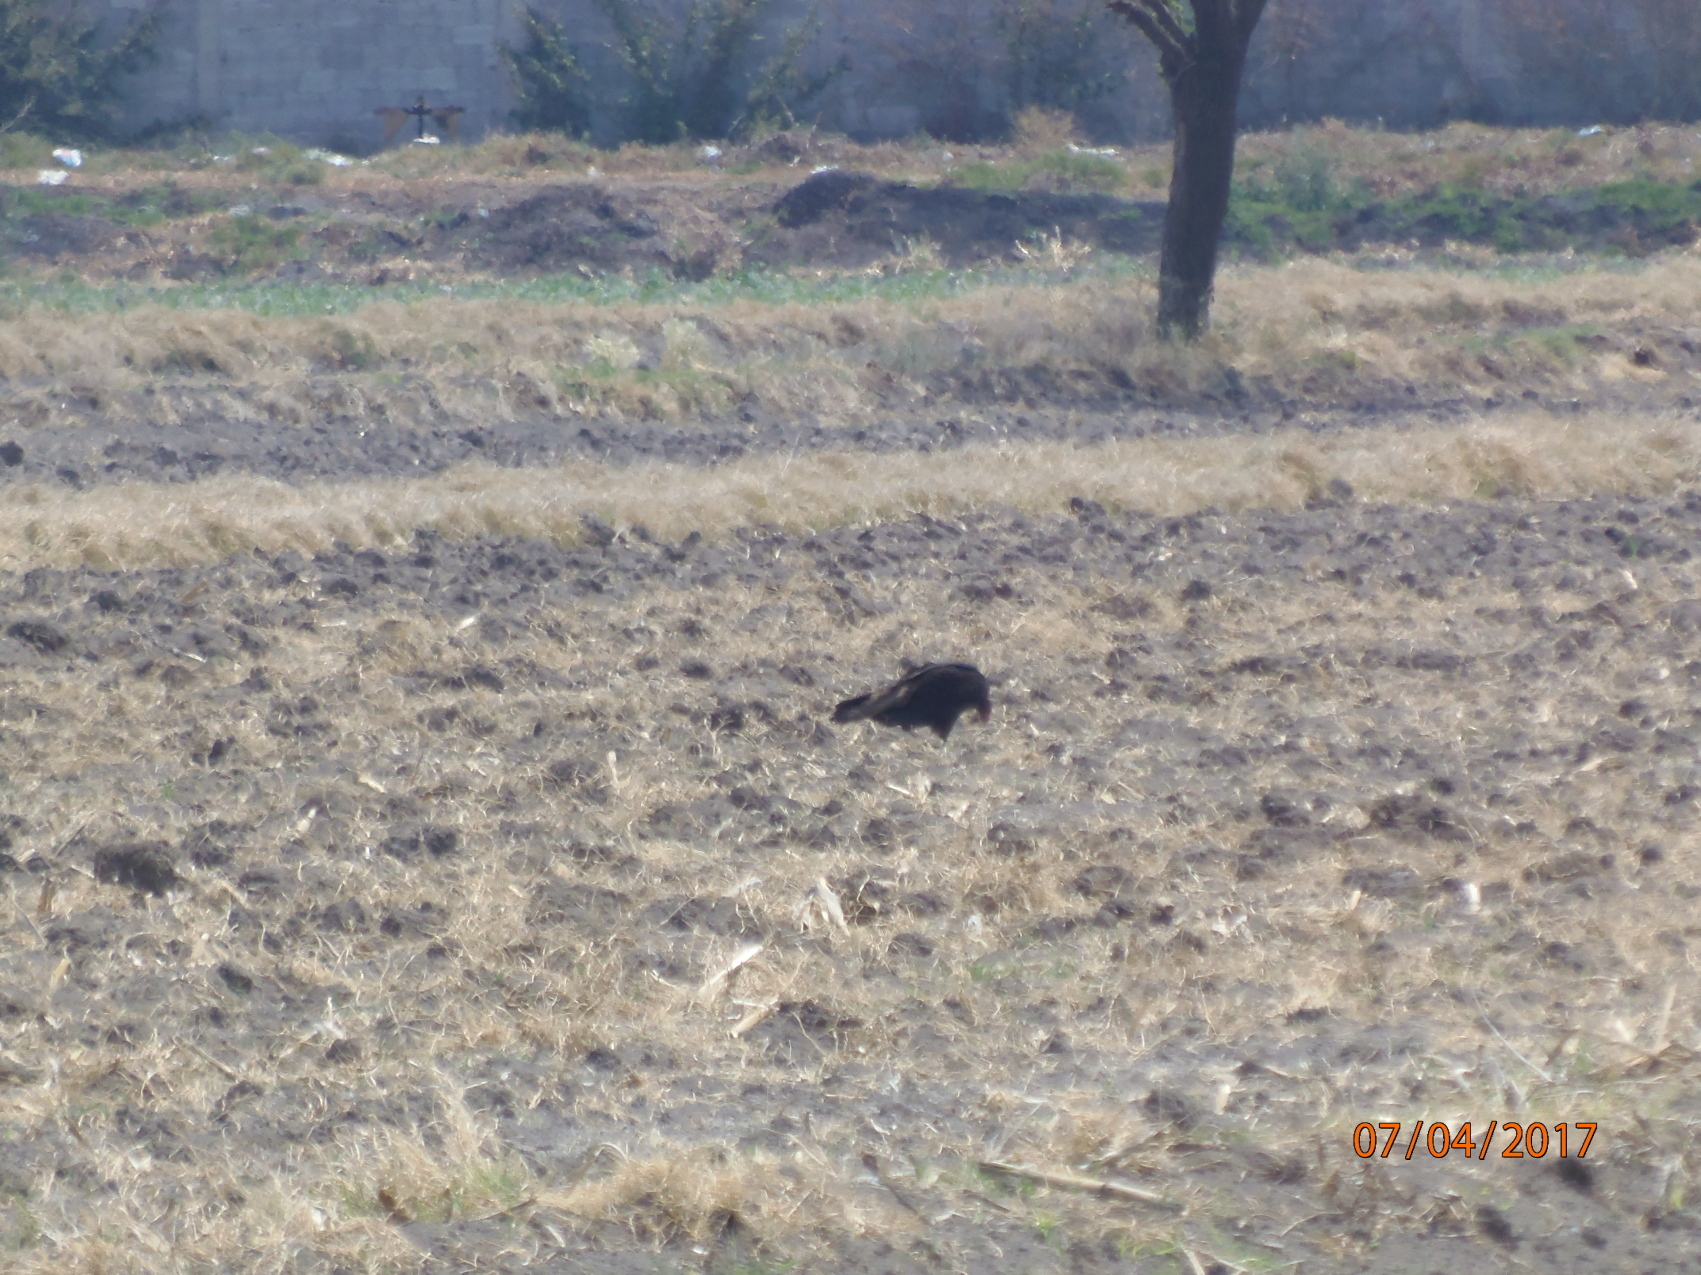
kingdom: Animalia
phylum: Chordata
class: Aves
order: Accipitriformes
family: Cathartidae
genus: Cathartes
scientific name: Cathartes aura
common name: Turkey vulture
